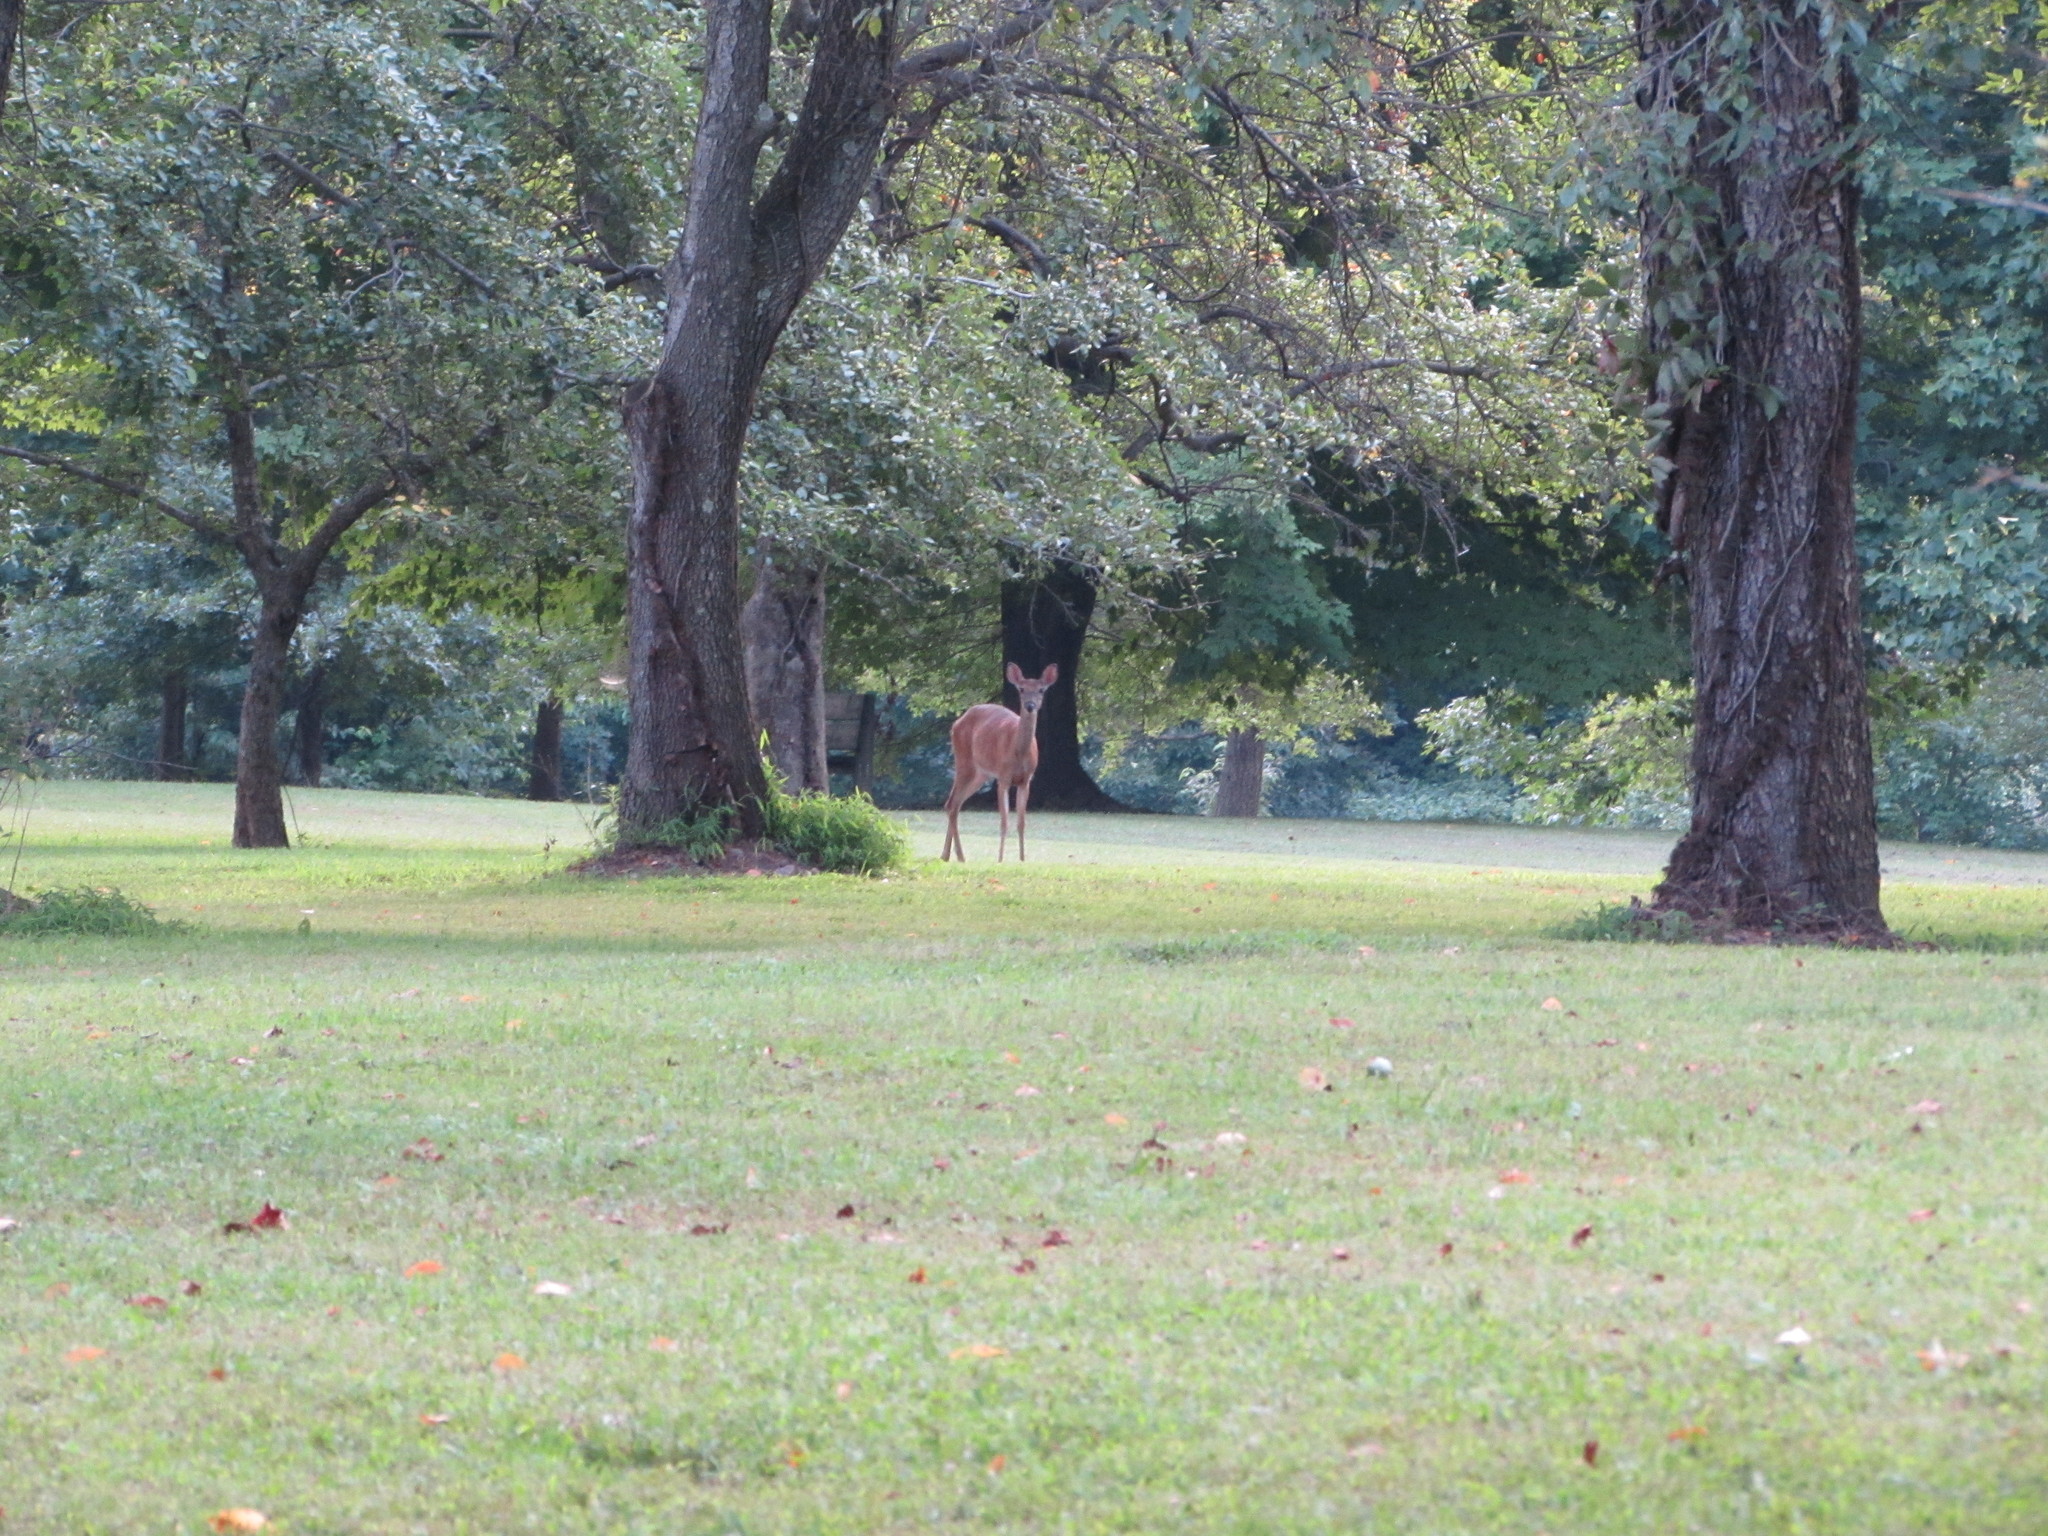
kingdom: Animalia
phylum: Chordata
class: Mammalia
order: Artiodactyla
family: Cervidae
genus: Odocoileus
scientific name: Odocoileus virginianus
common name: White-tailed deer
